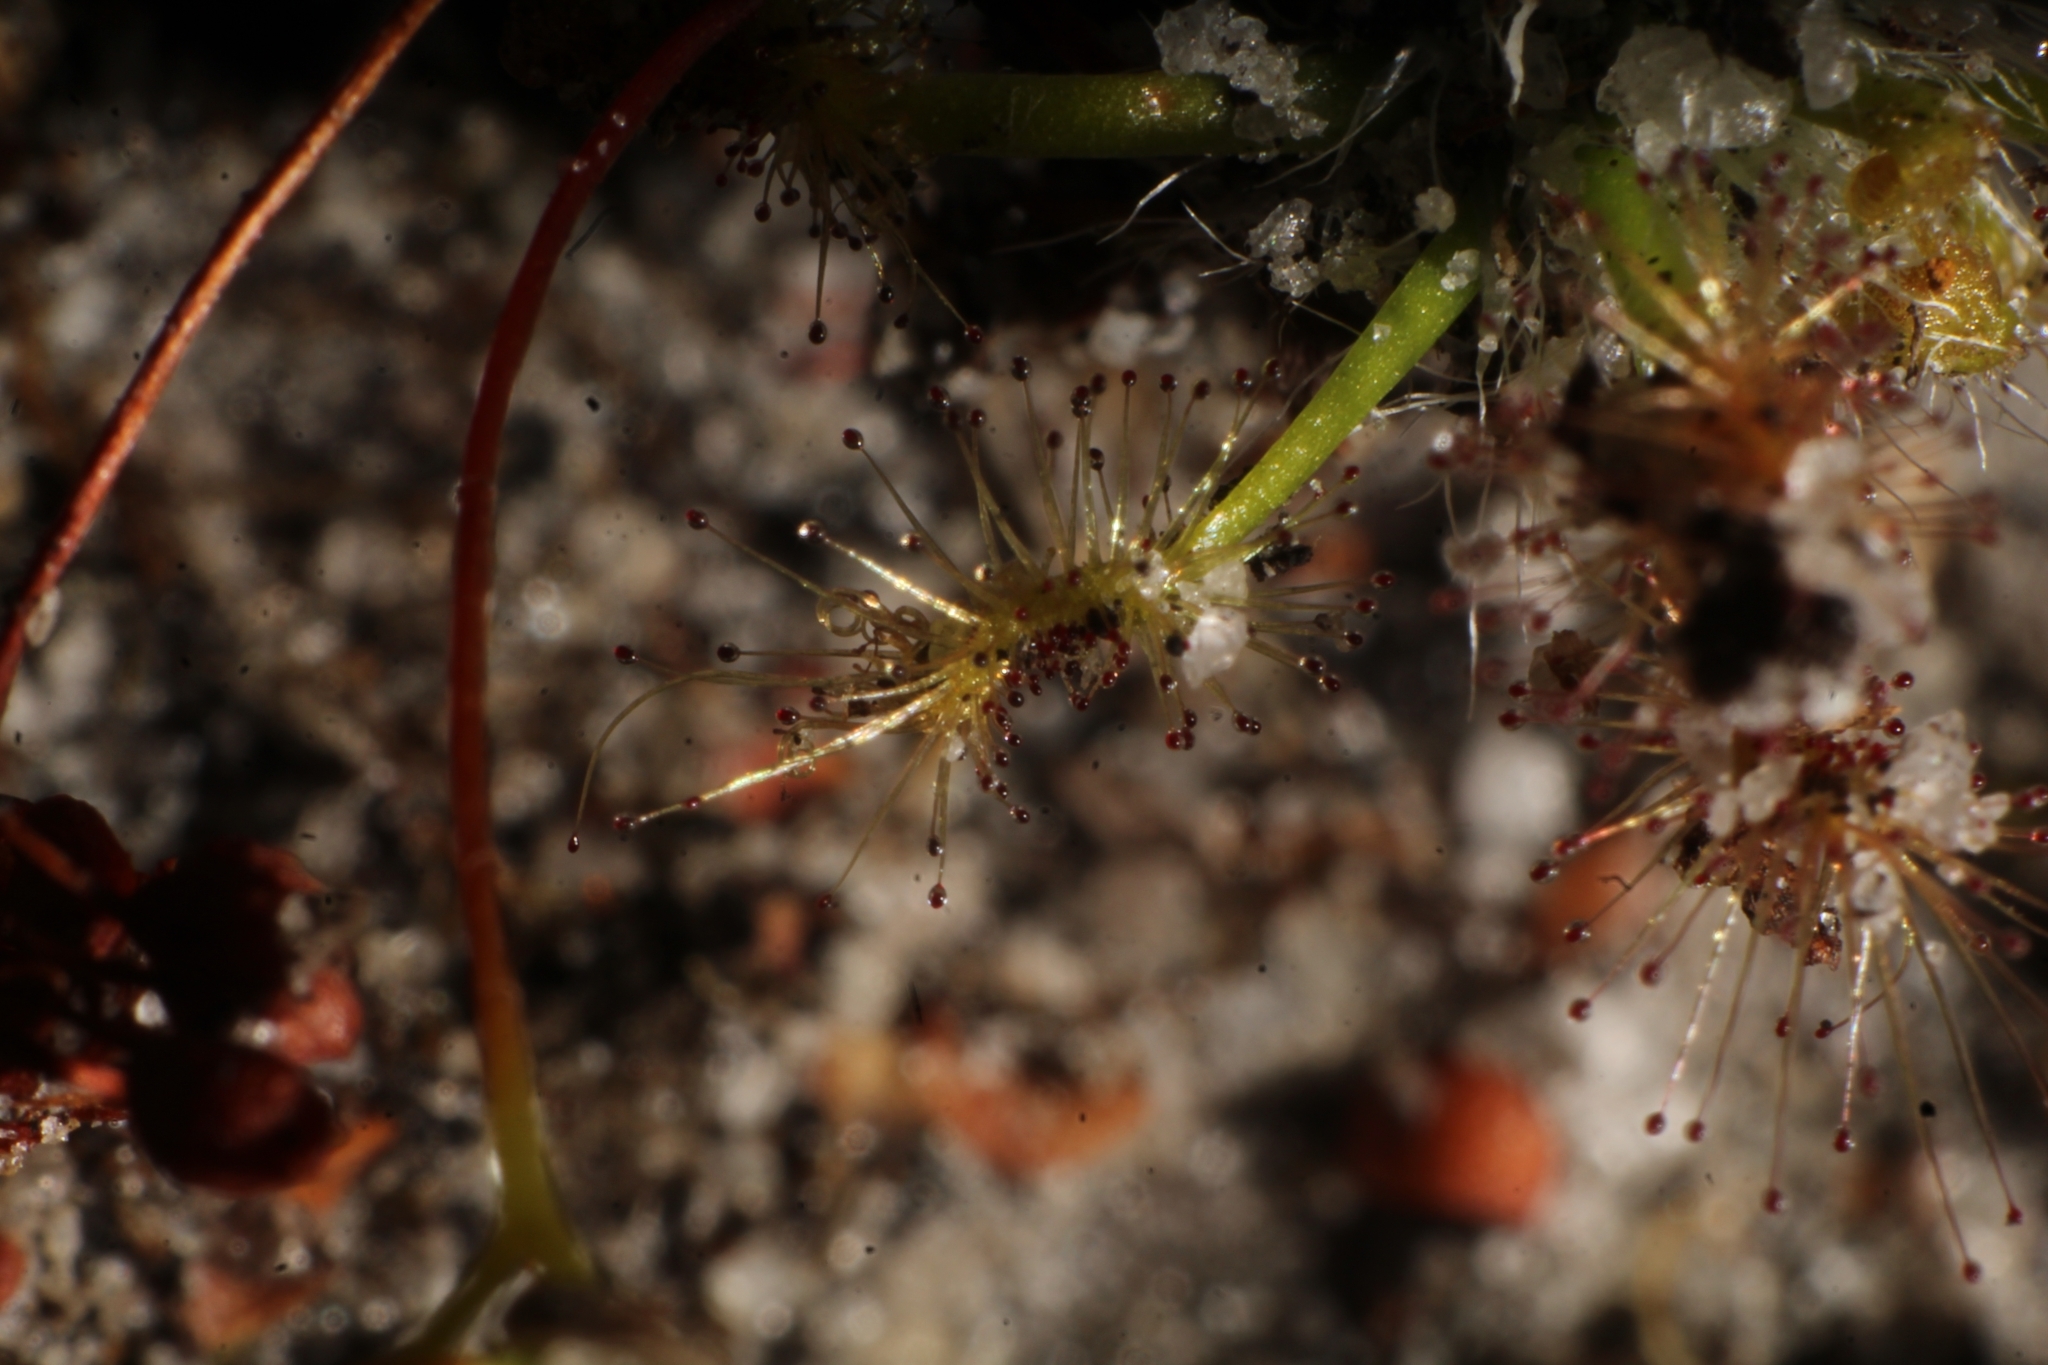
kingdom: Plantae
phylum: Tracheophyta
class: Magnoliopsida
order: Caryophyllales
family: Droseraceae
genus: Drosera
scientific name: Drosera paleacea
